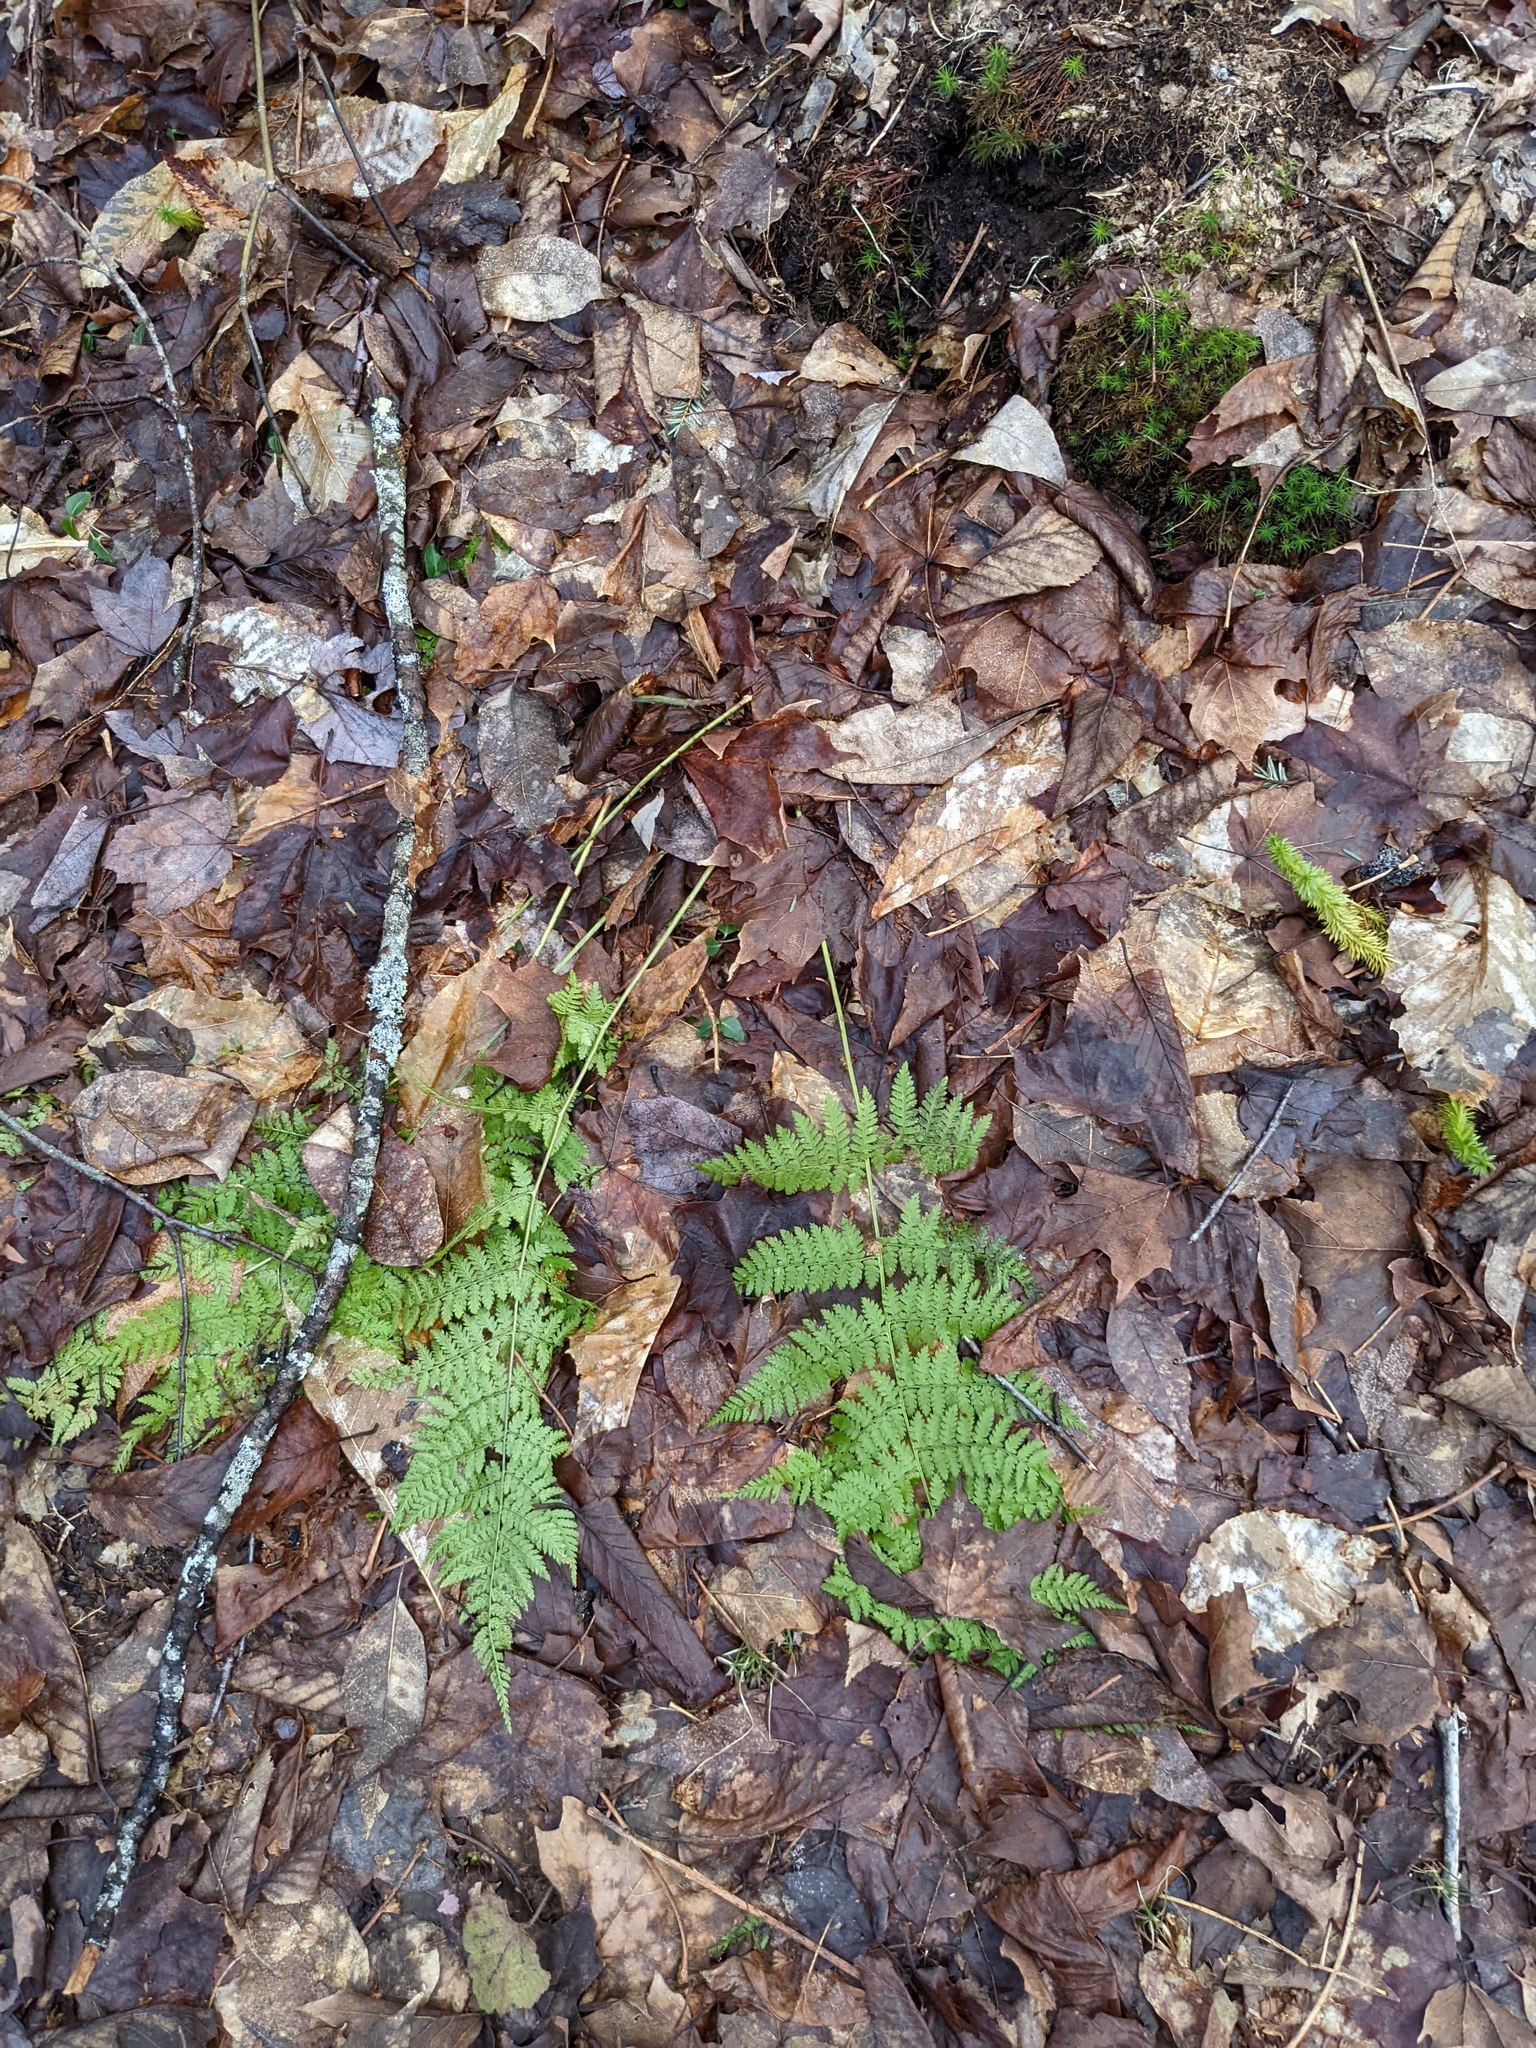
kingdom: Plantae
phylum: Tracheophyta
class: Polypodiopsida
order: Polypodiales
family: Dryopteridaceae
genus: Dryopteris
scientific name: Dryopteris intermedia
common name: Evergreen wood fern
